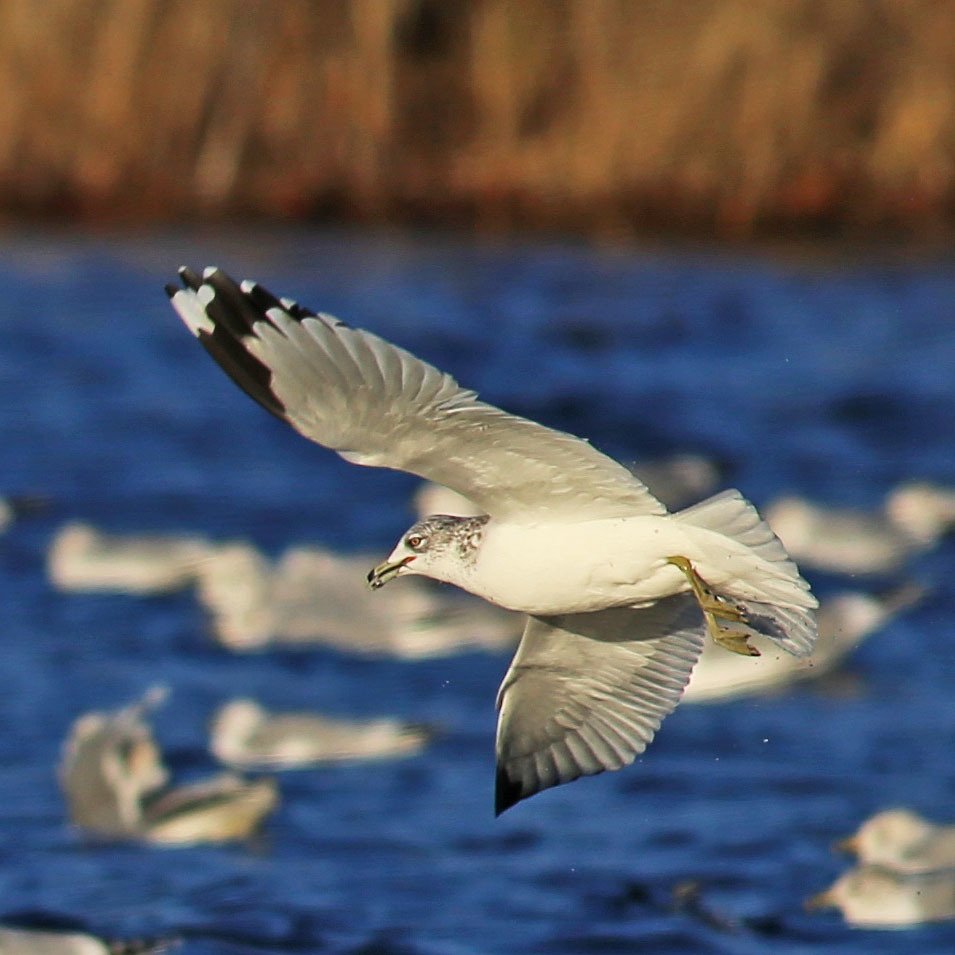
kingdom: Animalia
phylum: Chordata
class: Aves
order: Charadriiformes
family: Laridae
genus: Larus
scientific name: Larus delawarensis
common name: Ring-billed gull
